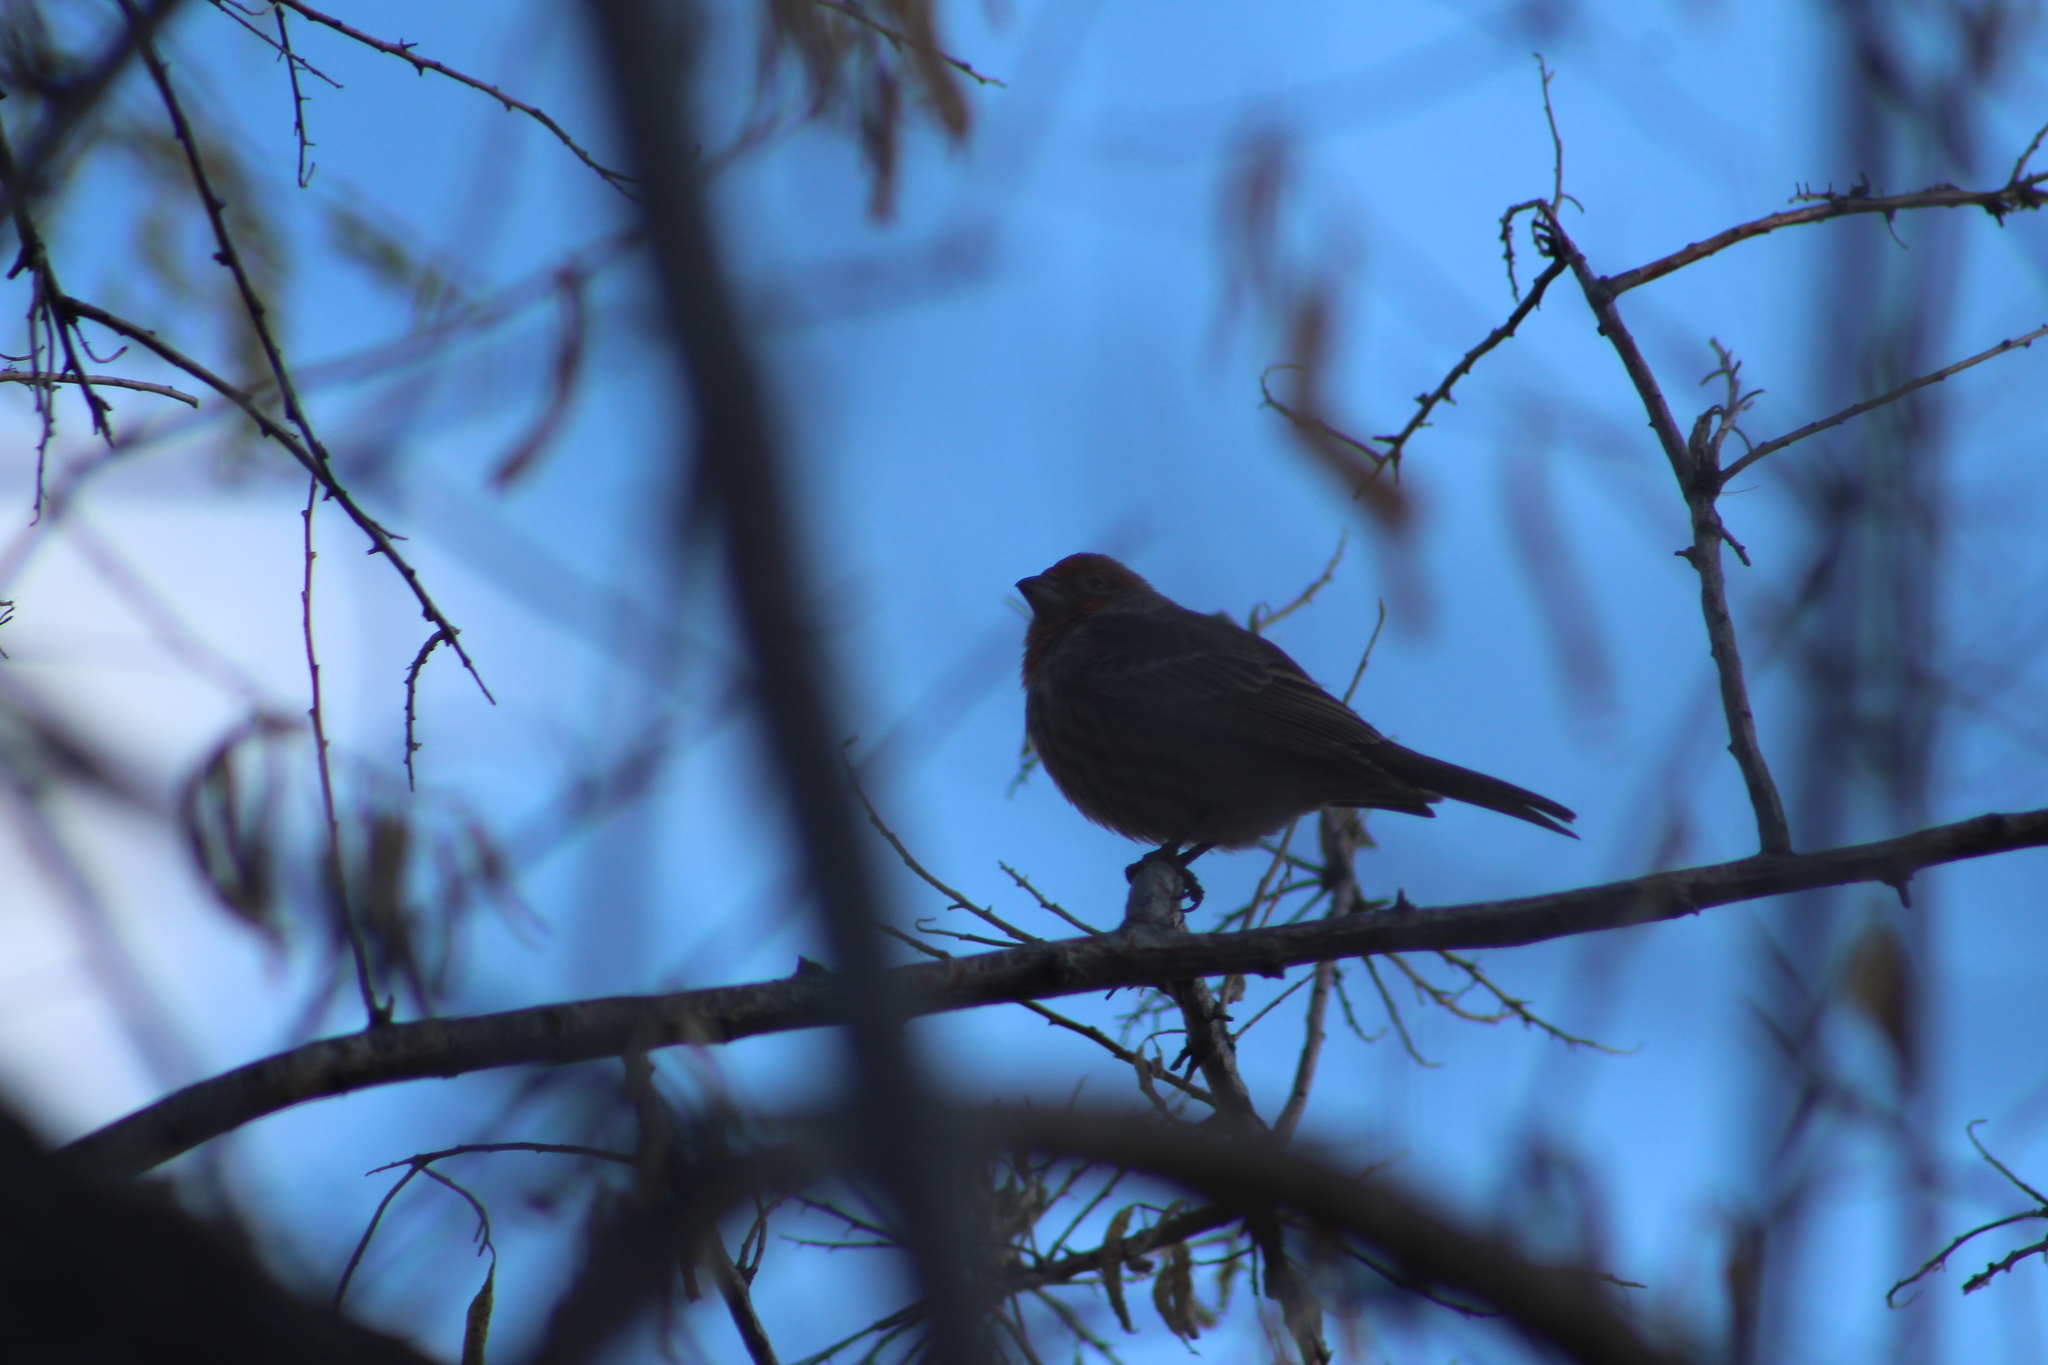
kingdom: Animalia
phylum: Chordata
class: Aves
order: Passeriformes
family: Fringillidae
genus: Haemorhous
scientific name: Haemorhous mexicanus
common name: House finch
